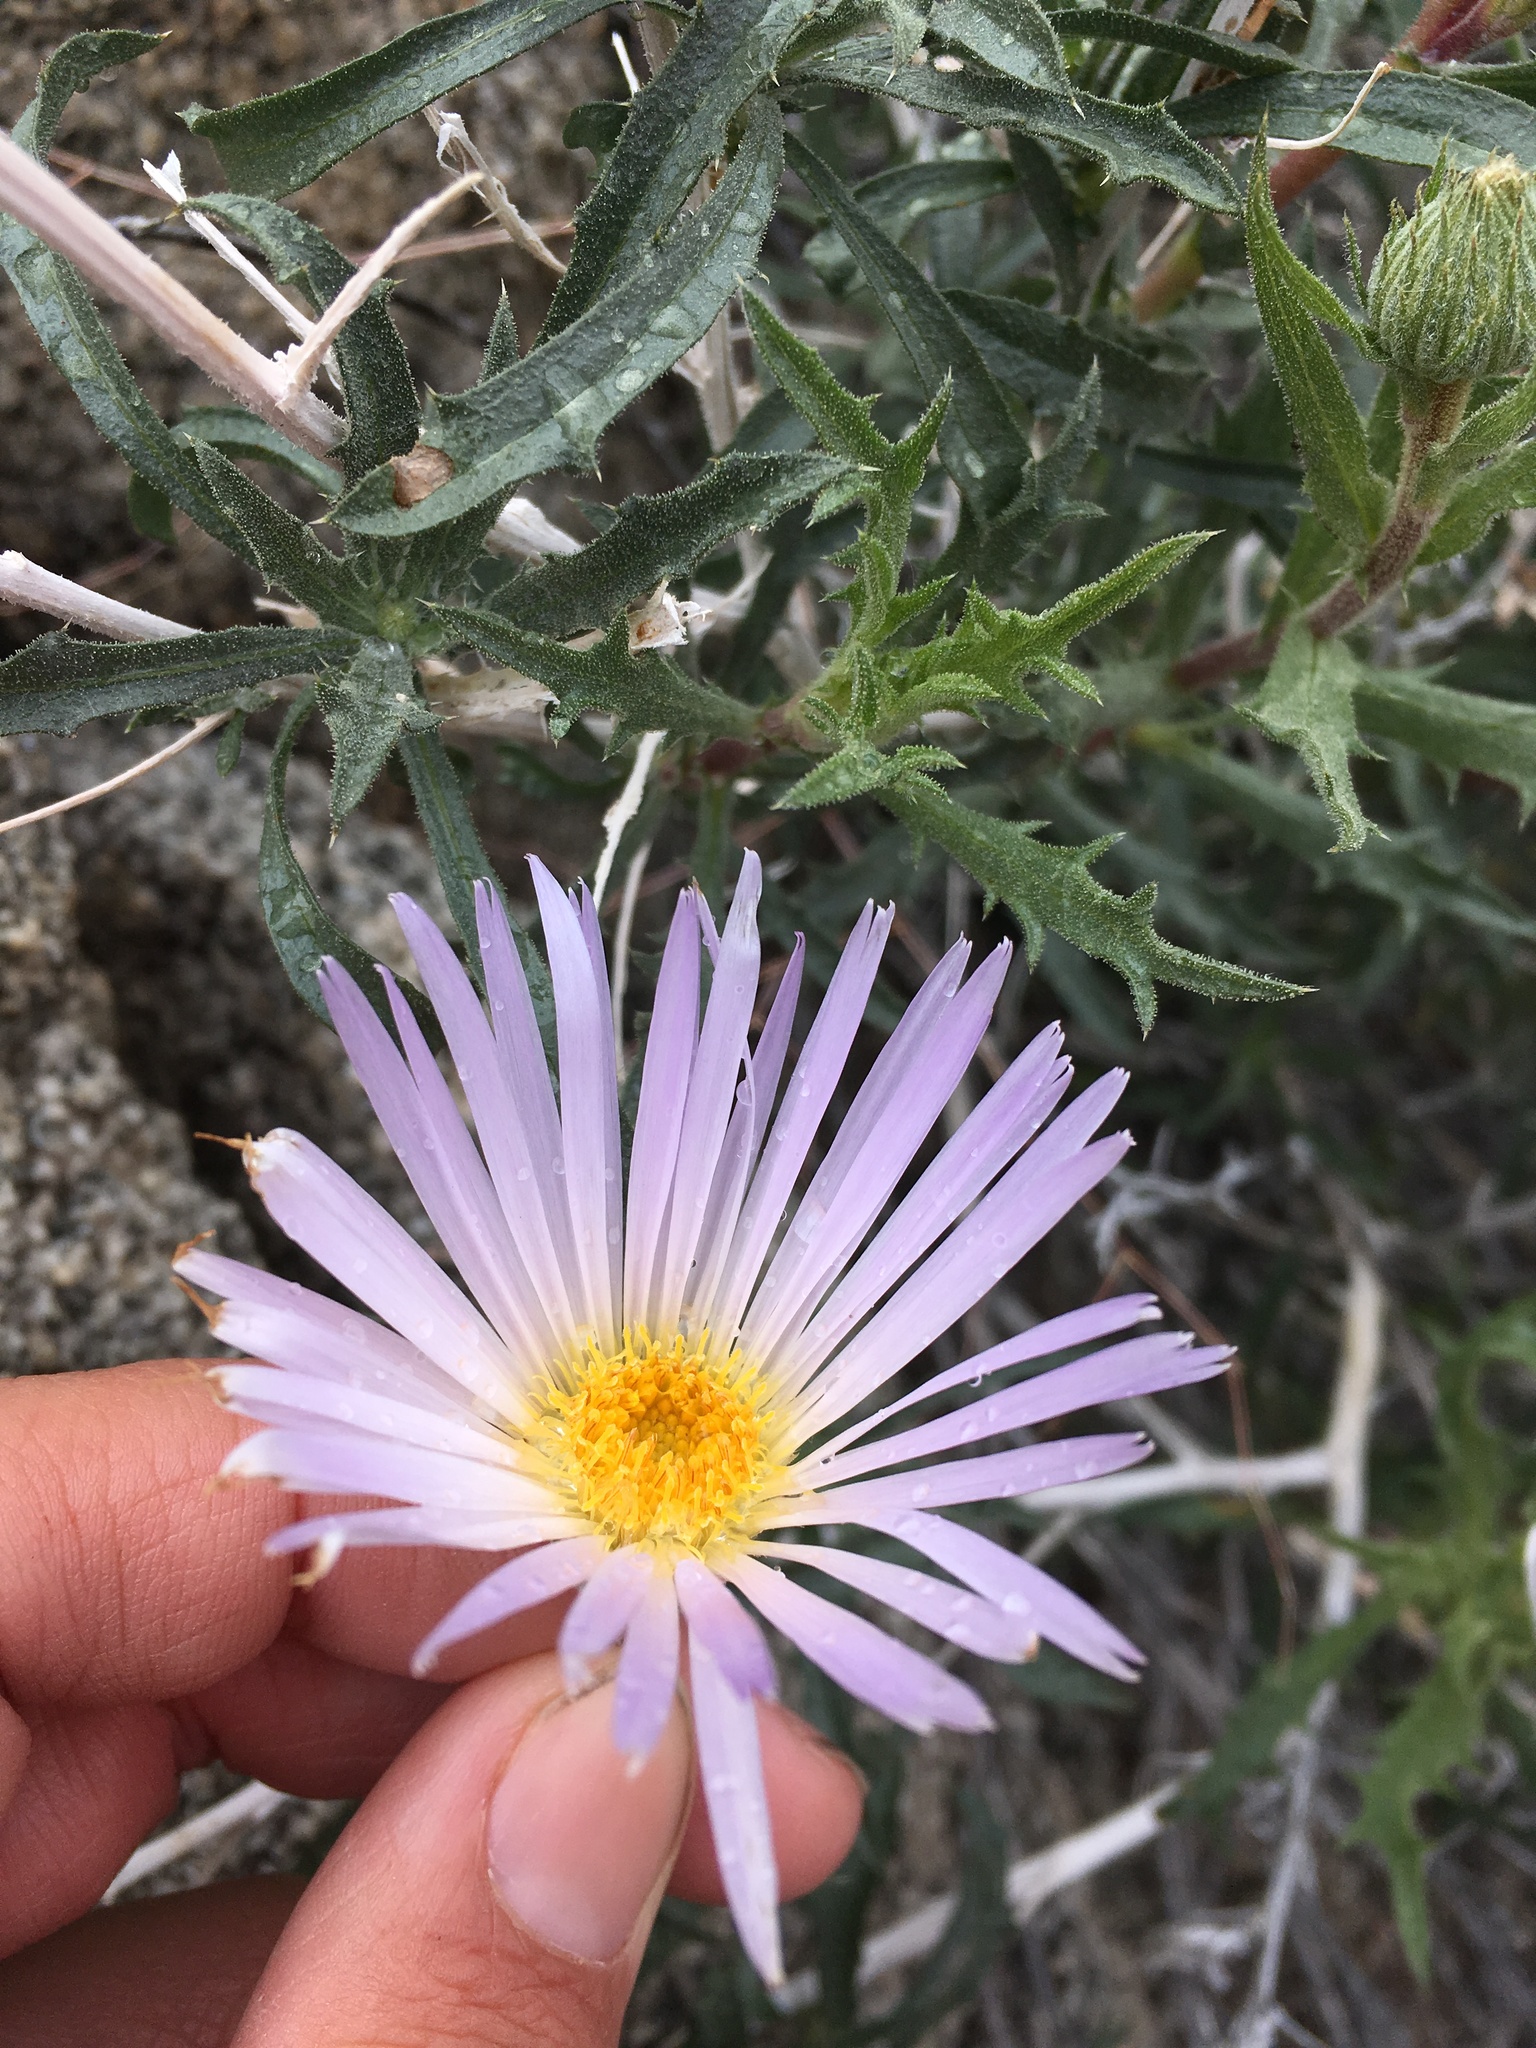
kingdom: Plantae
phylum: Tracheophyta
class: Magnoliopsida
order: Asterales
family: Asteraceae
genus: Xylorhiza
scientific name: Xylorhiza tortifolia
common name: Hurt-leaf woody-aster
